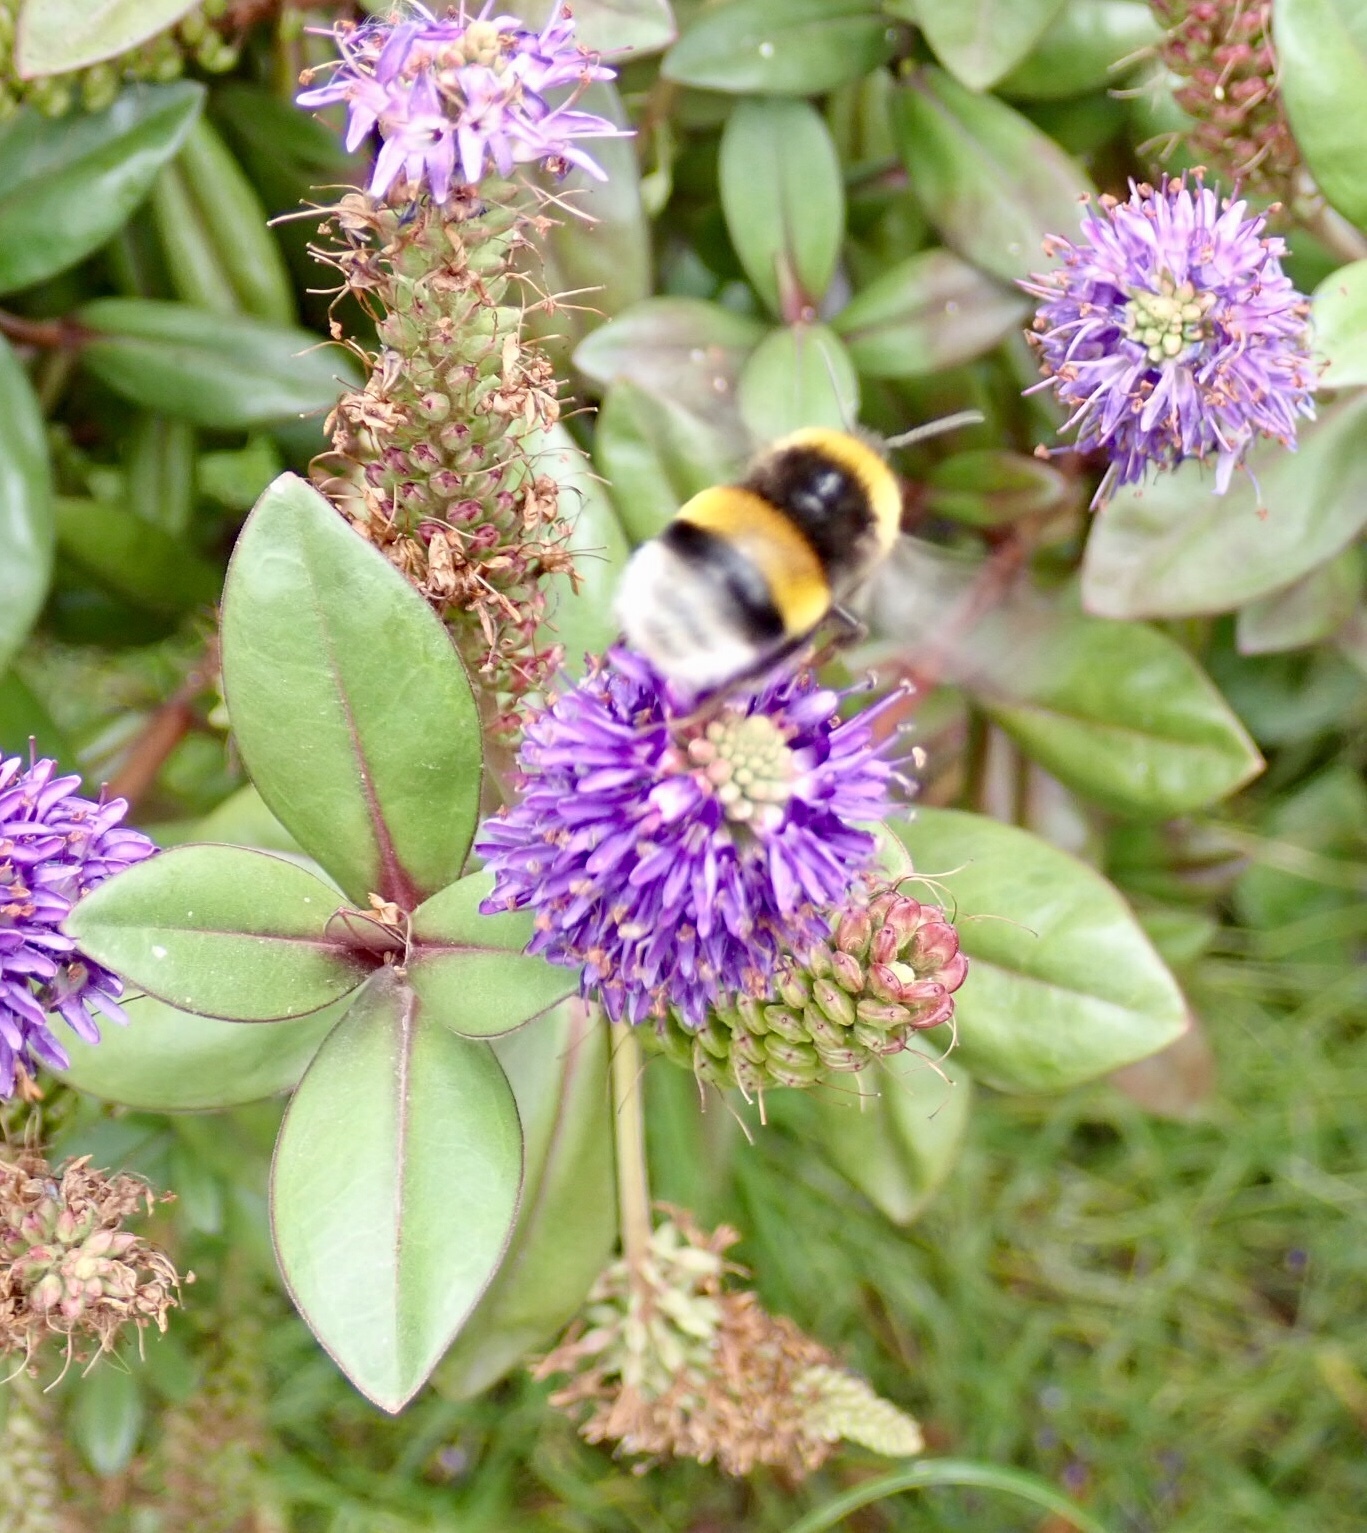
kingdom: Animalia
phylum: Arthropoda
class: Insecta
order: Hymenoptera
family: Apidae
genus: Bombus
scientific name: Bombus terrestris
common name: Buff-tailed bumblebee
